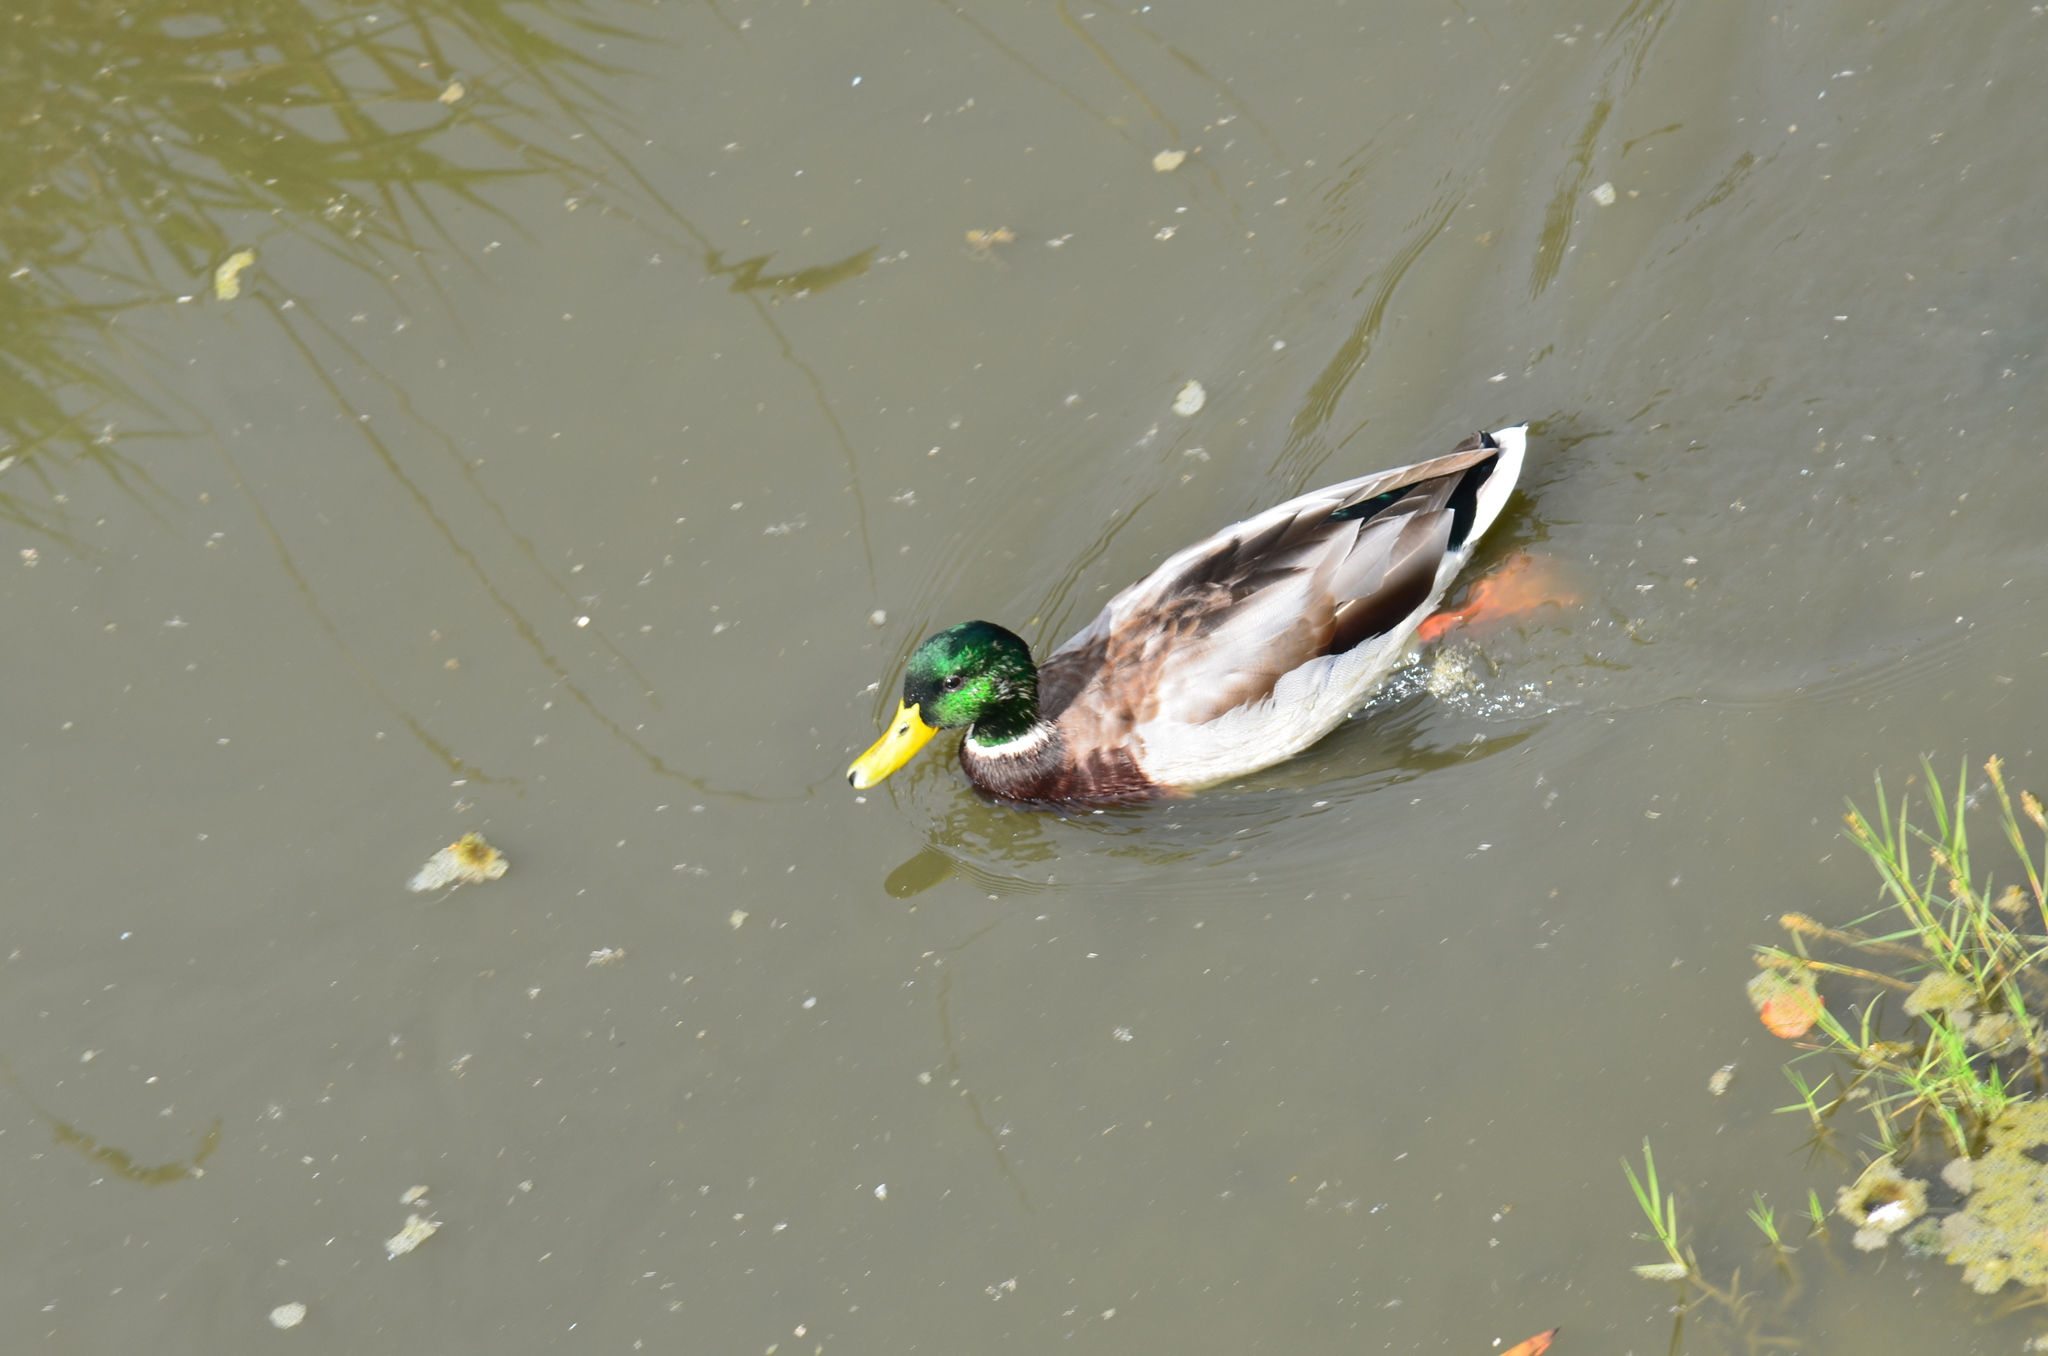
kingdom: Animalia
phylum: Chordata
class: Aves
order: Anseriformes
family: Anatidae
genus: Anas
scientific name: Anas platyrhynchos
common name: Mallard
